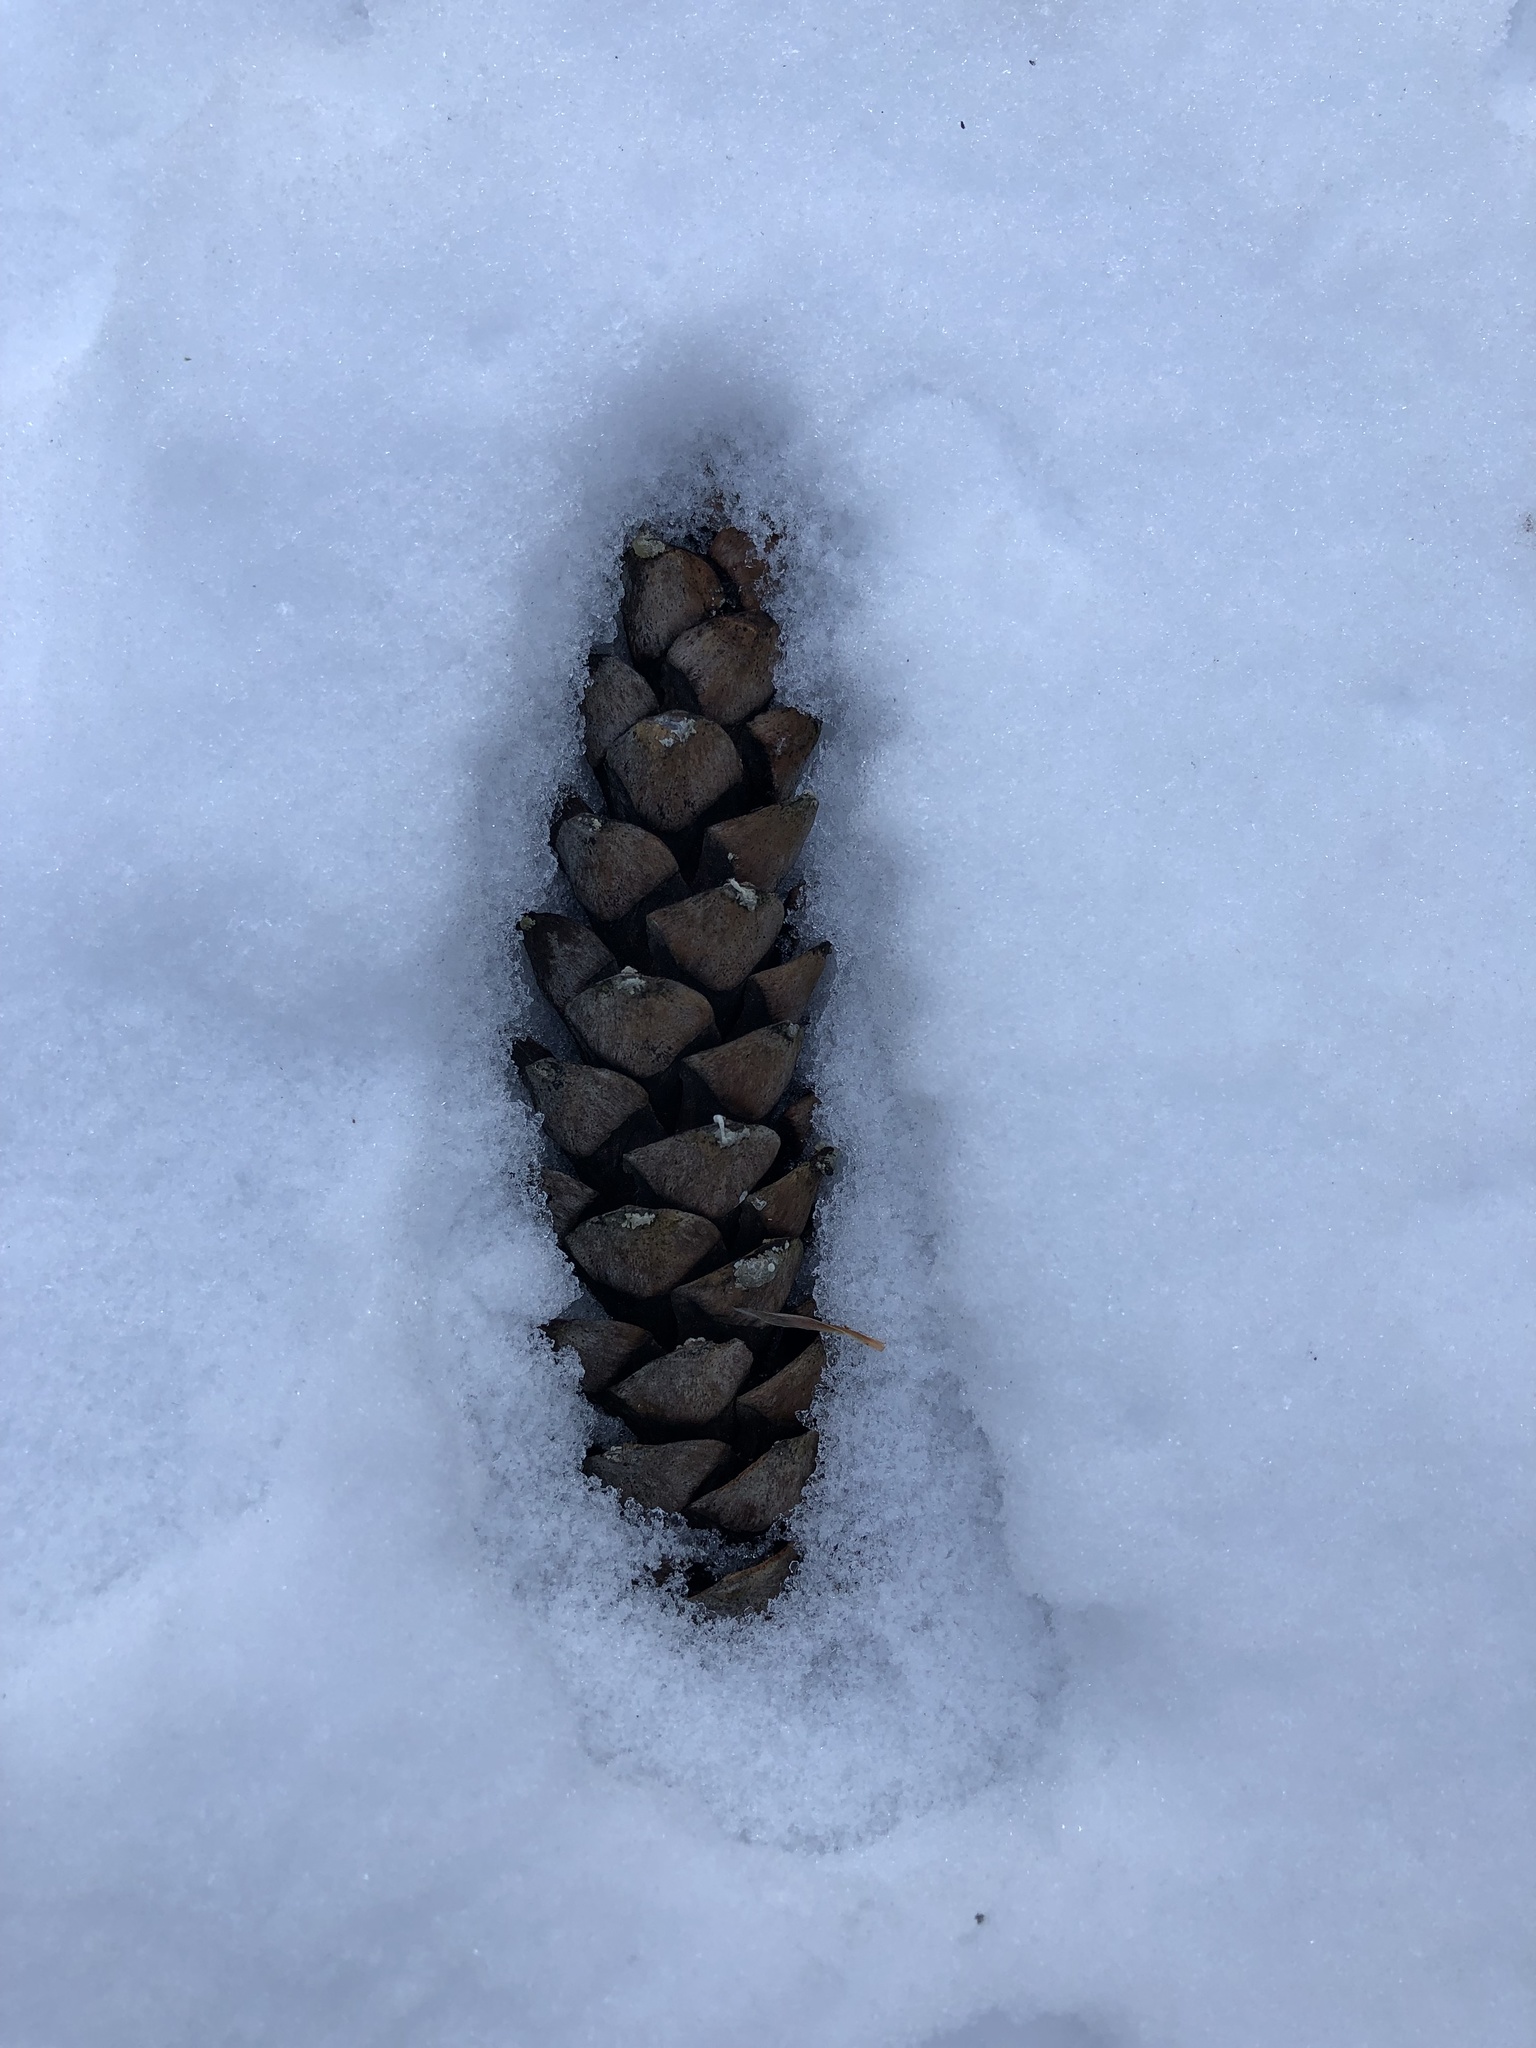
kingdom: Plantae
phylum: Tracheophyta
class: Pinopsida
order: Pinales
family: Pinaceae
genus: Pinus
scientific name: Pinus strobus
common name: Weymouth pine
